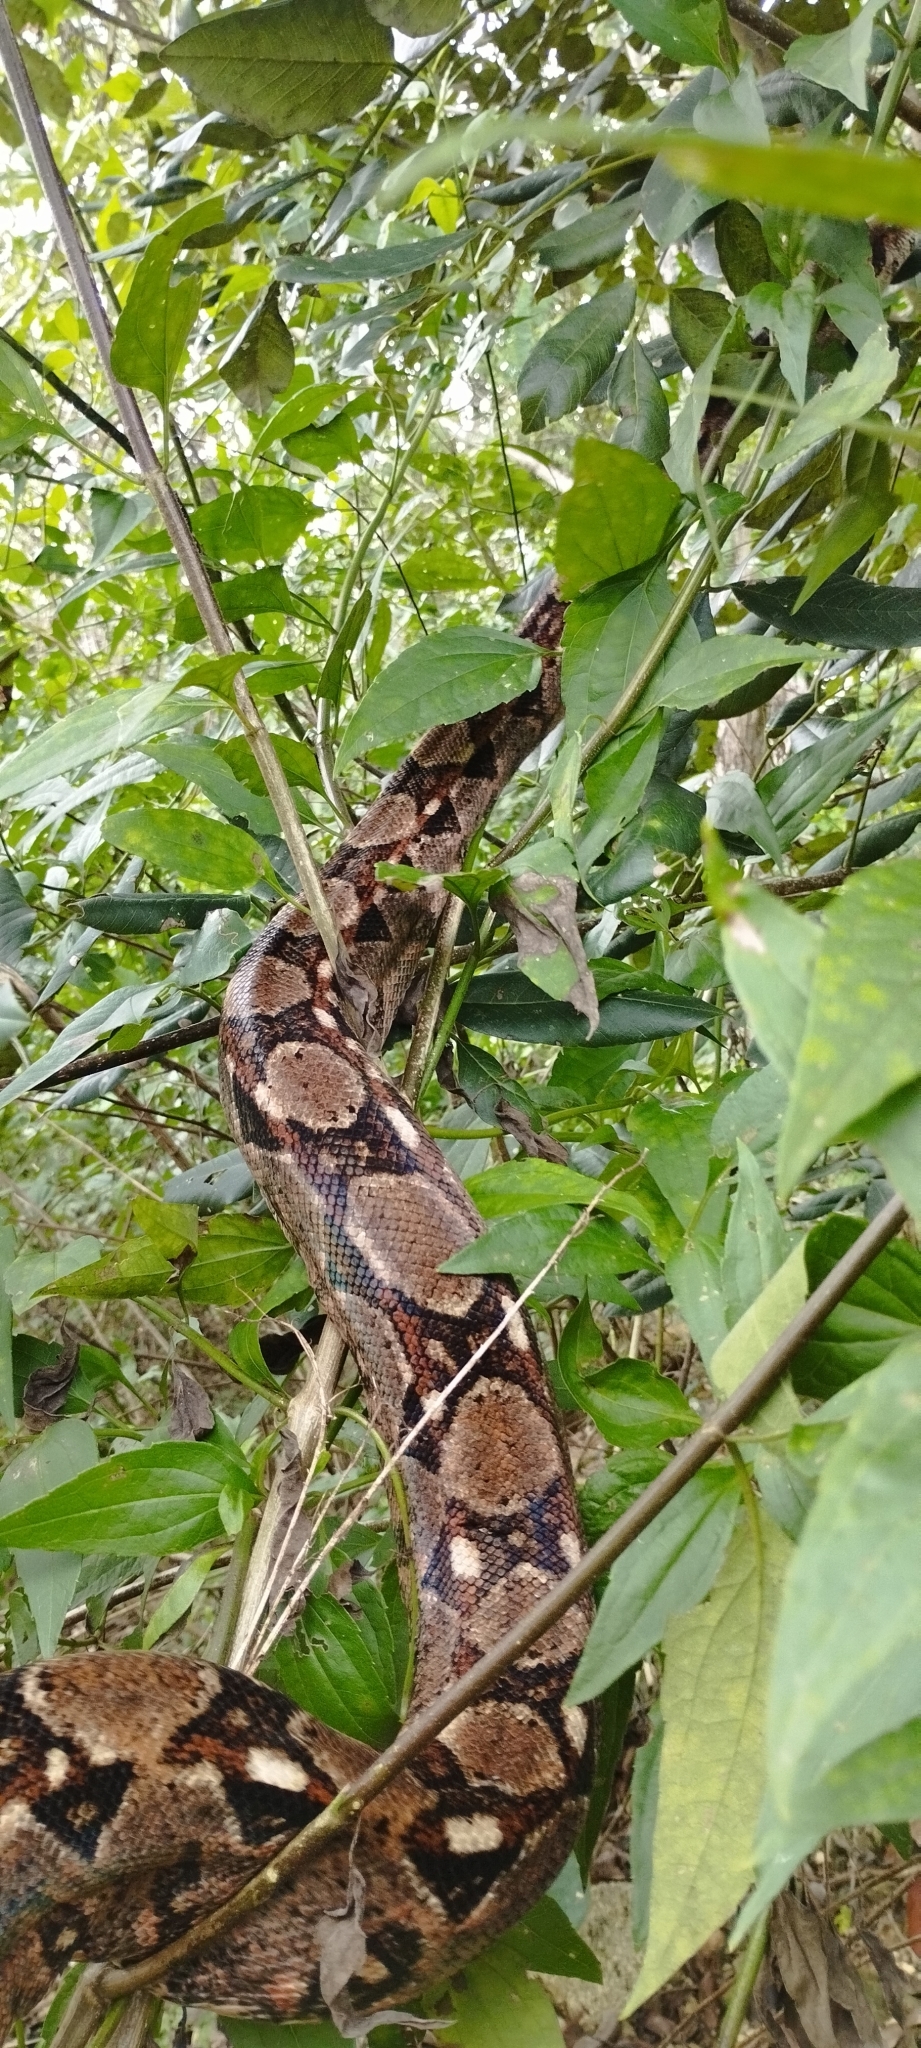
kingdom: Animalia
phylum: Chordata
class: Squamata
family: Boidae
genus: Boa
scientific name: Boa imperator
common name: Central american boa
